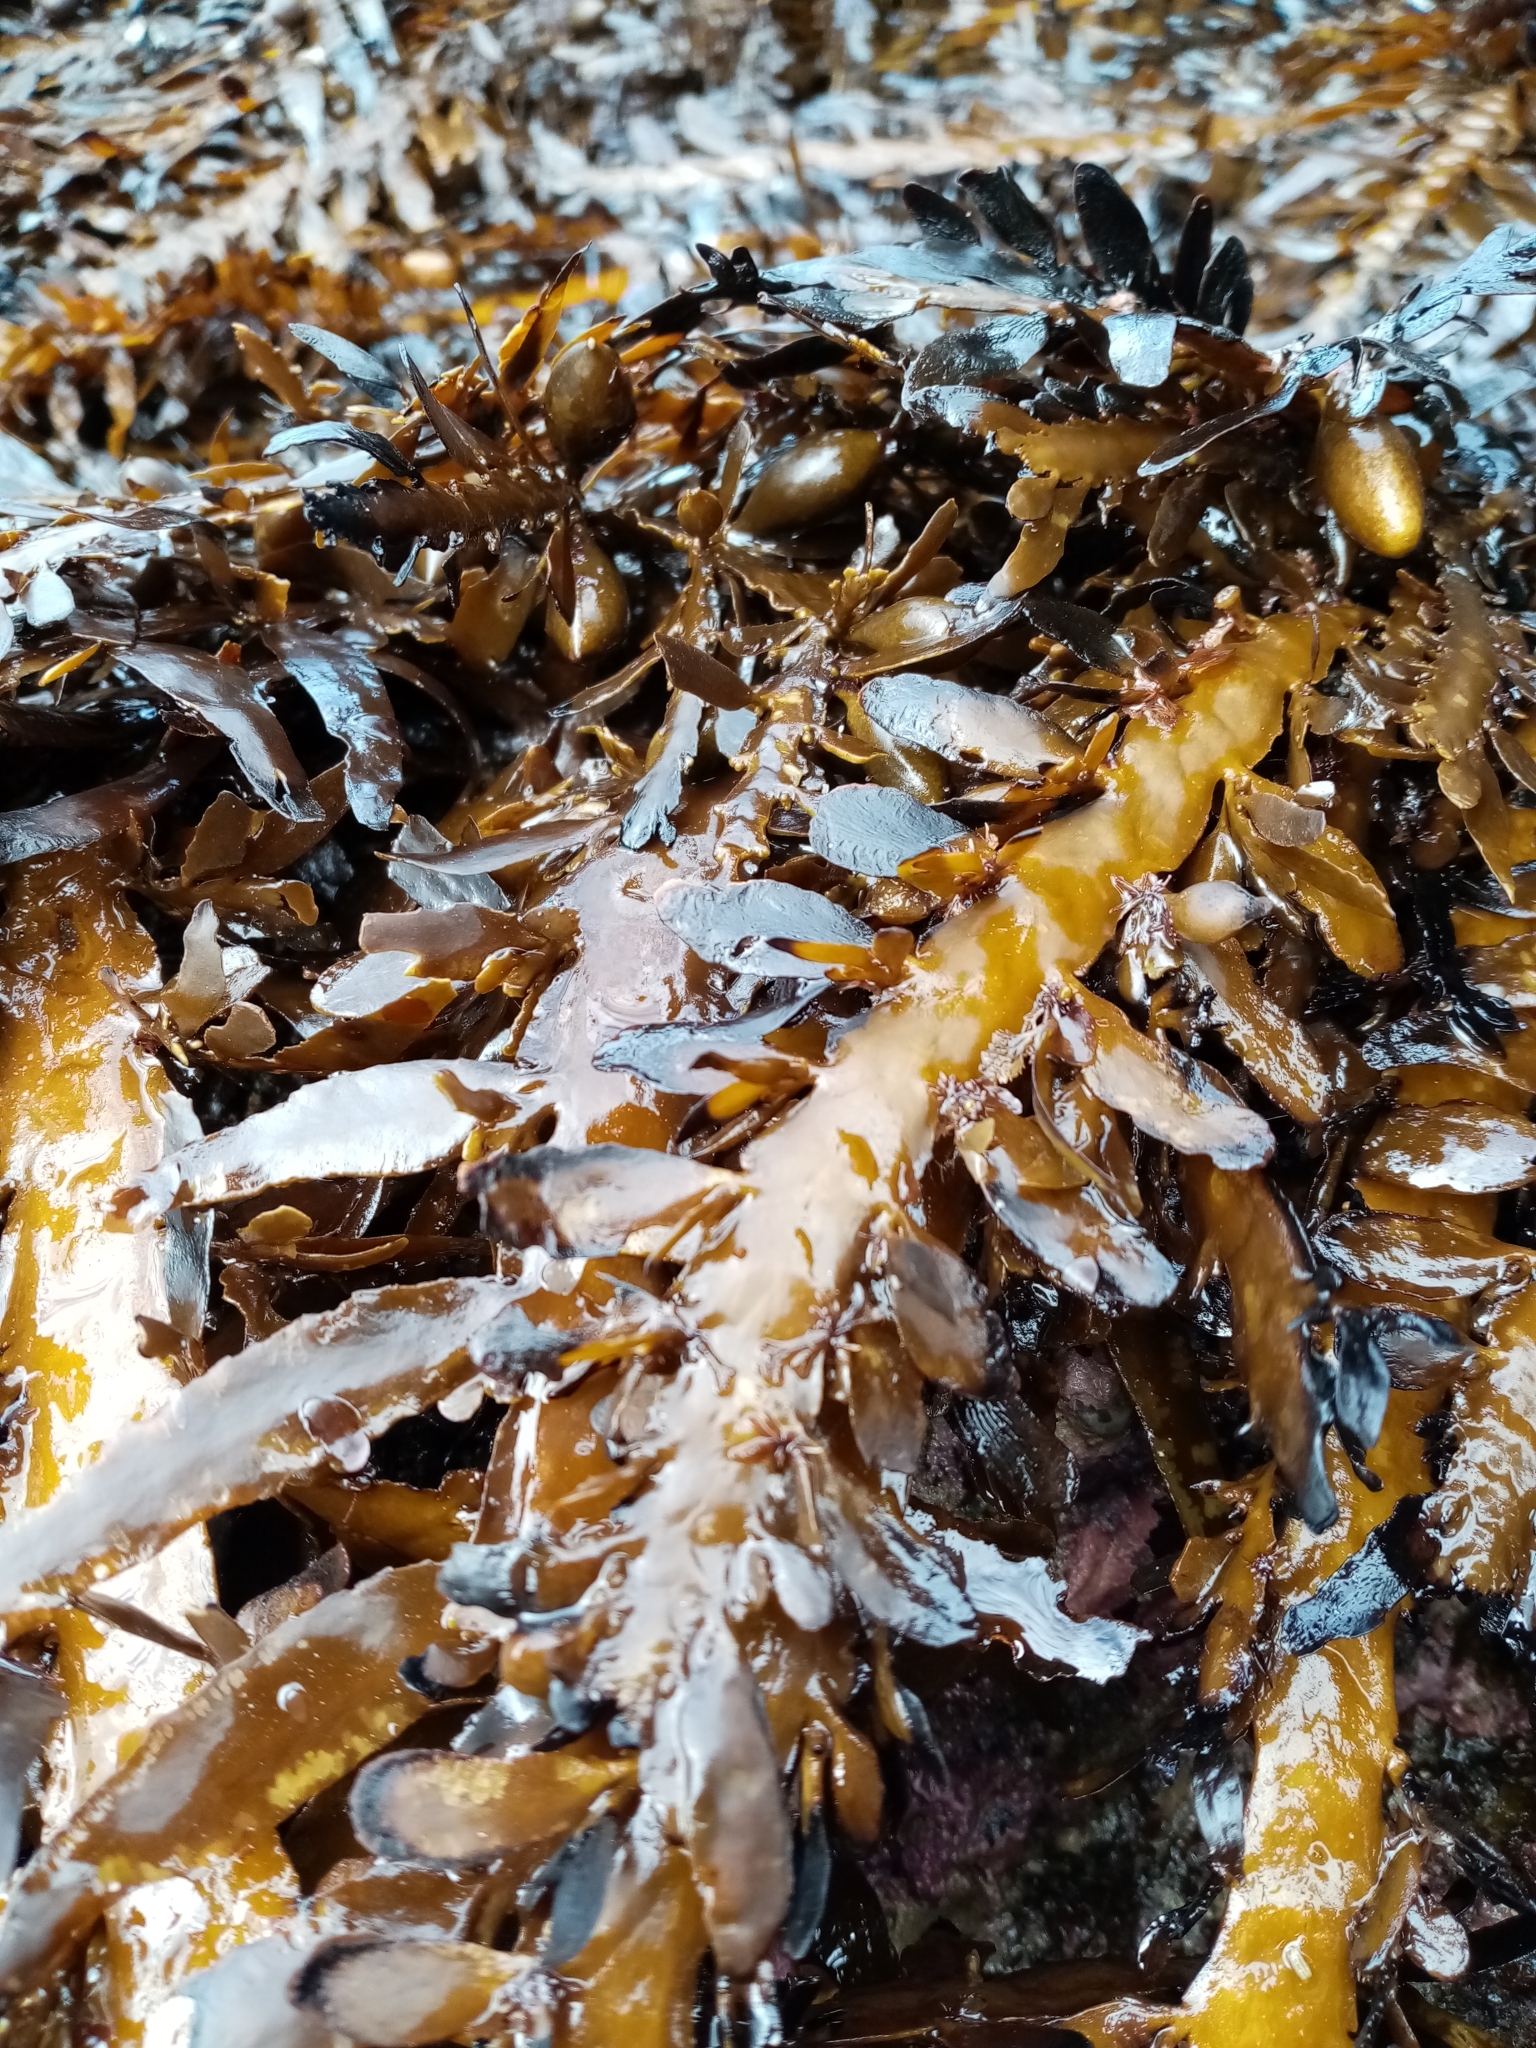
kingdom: Chromista
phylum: Ochrophyta
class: Phaeophyceae
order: Fucales
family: Sargassaceae
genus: Carpophyllum
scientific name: Carpophyllum maschalocarpum
